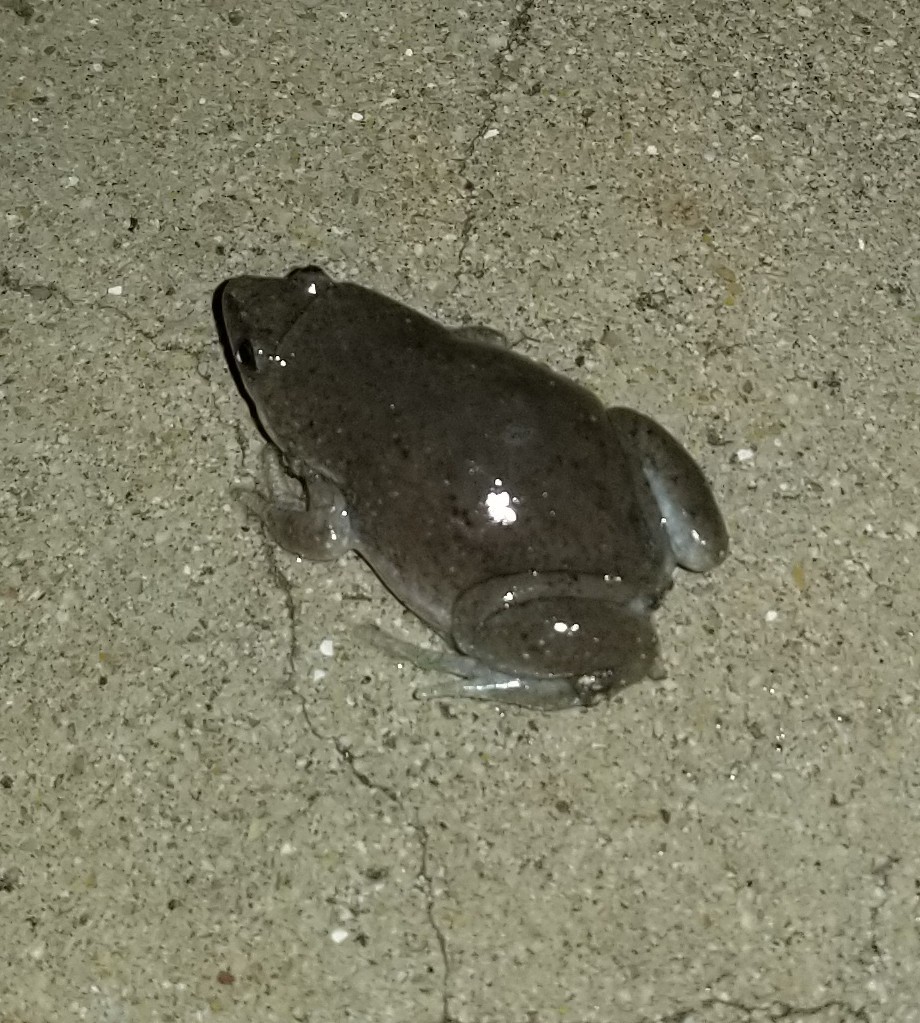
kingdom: Animalia
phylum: Chordata
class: Amphibia
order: Anura
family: Microhylidae
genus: Gastrophryne
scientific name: Gastrophryne olivacea
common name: Great plains narrow-mouthed toad
